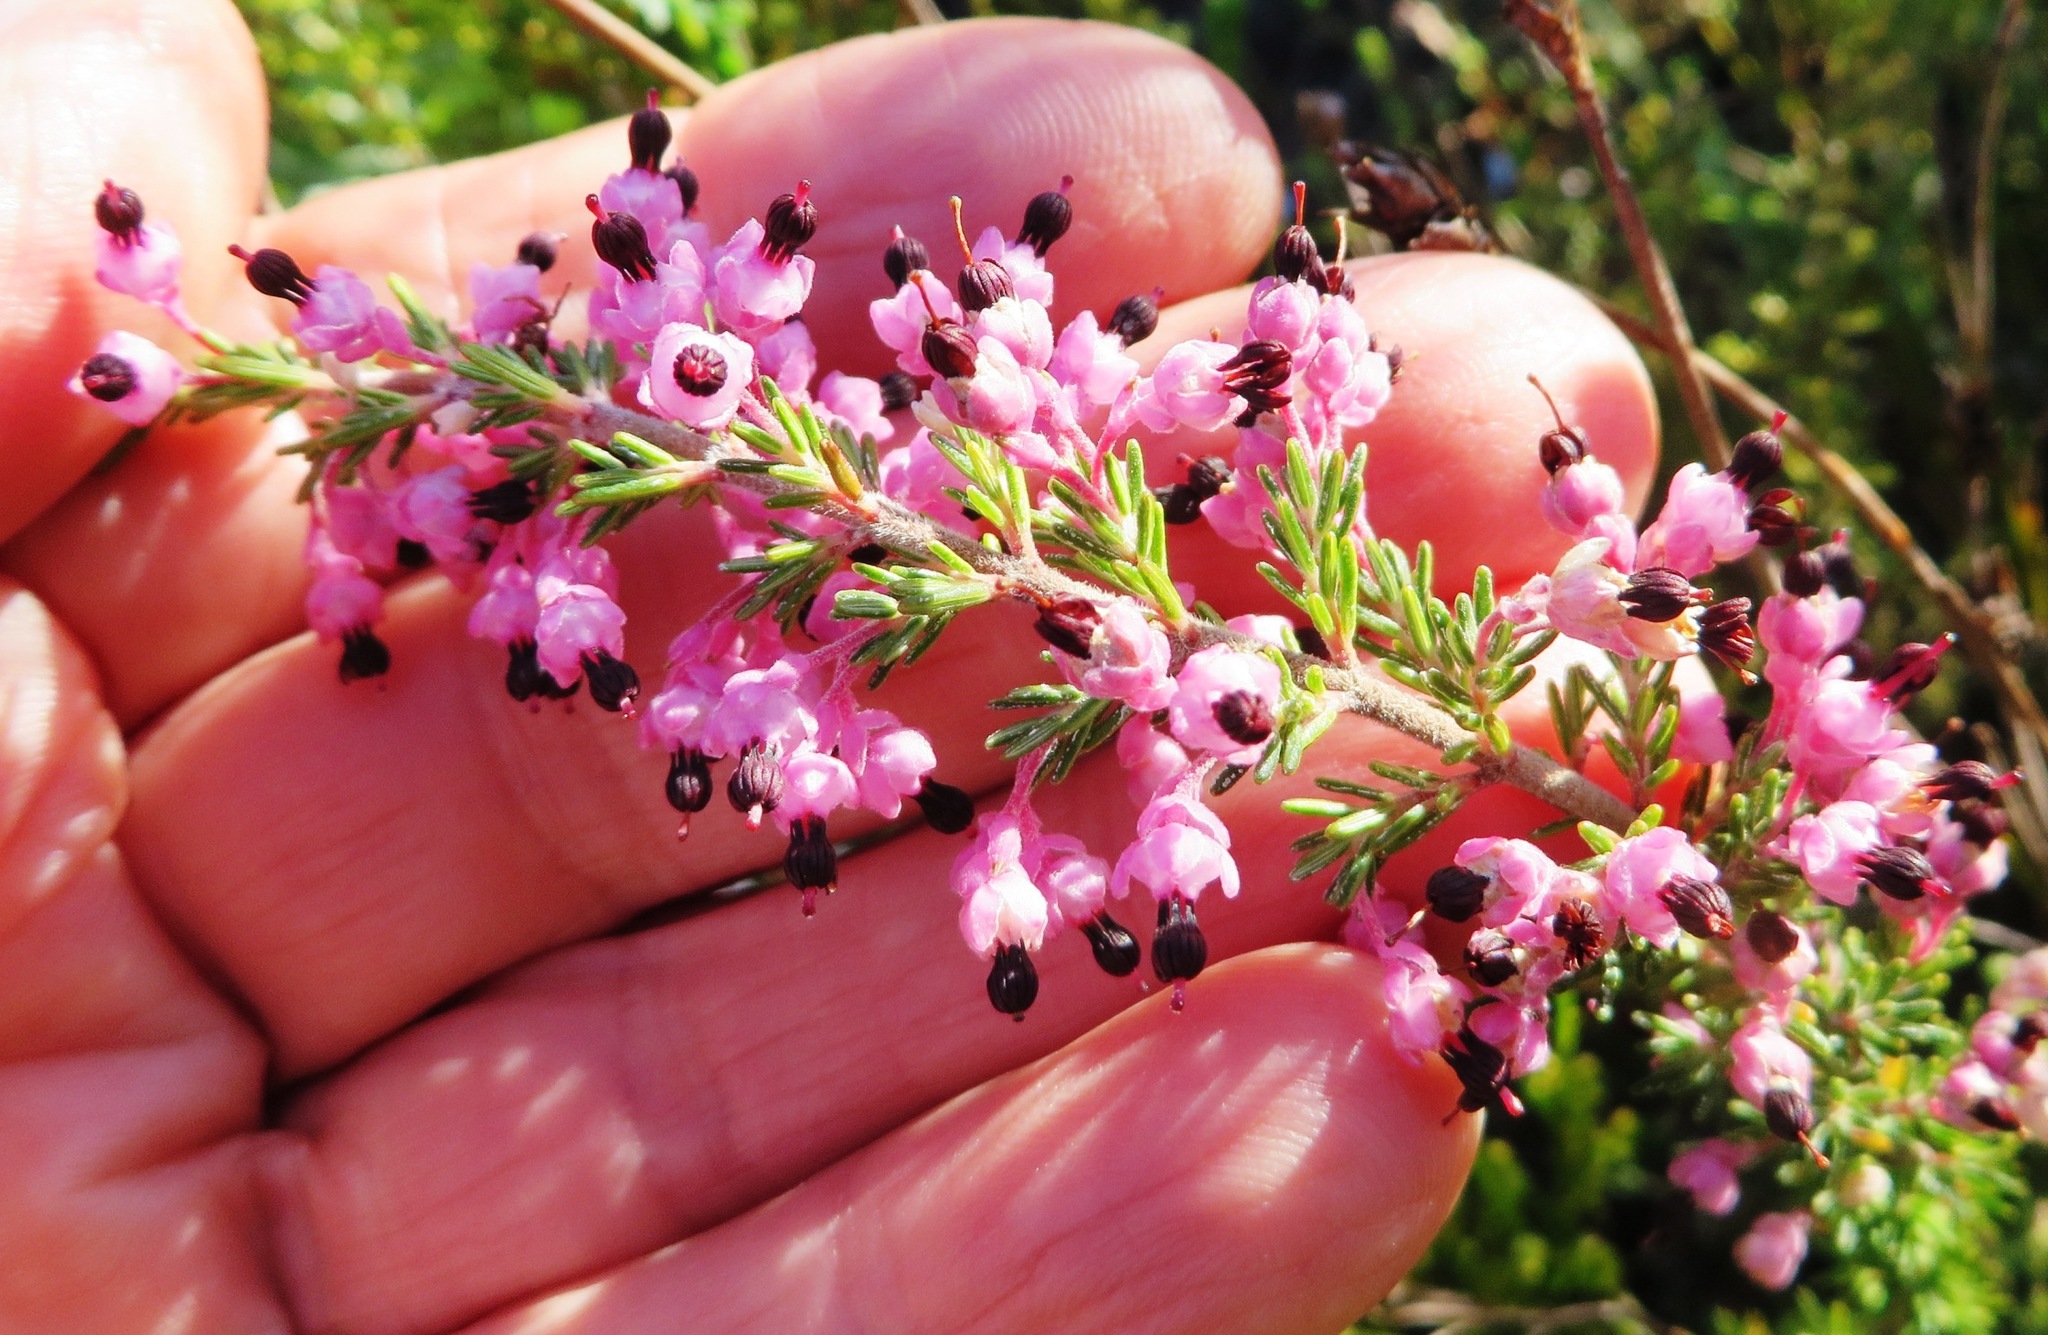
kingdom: Plantae
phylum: Tracheophyta
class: Magnoliopsida
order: Ericales
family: Ericaceae
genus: Erica
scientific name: Erica placentiflora
